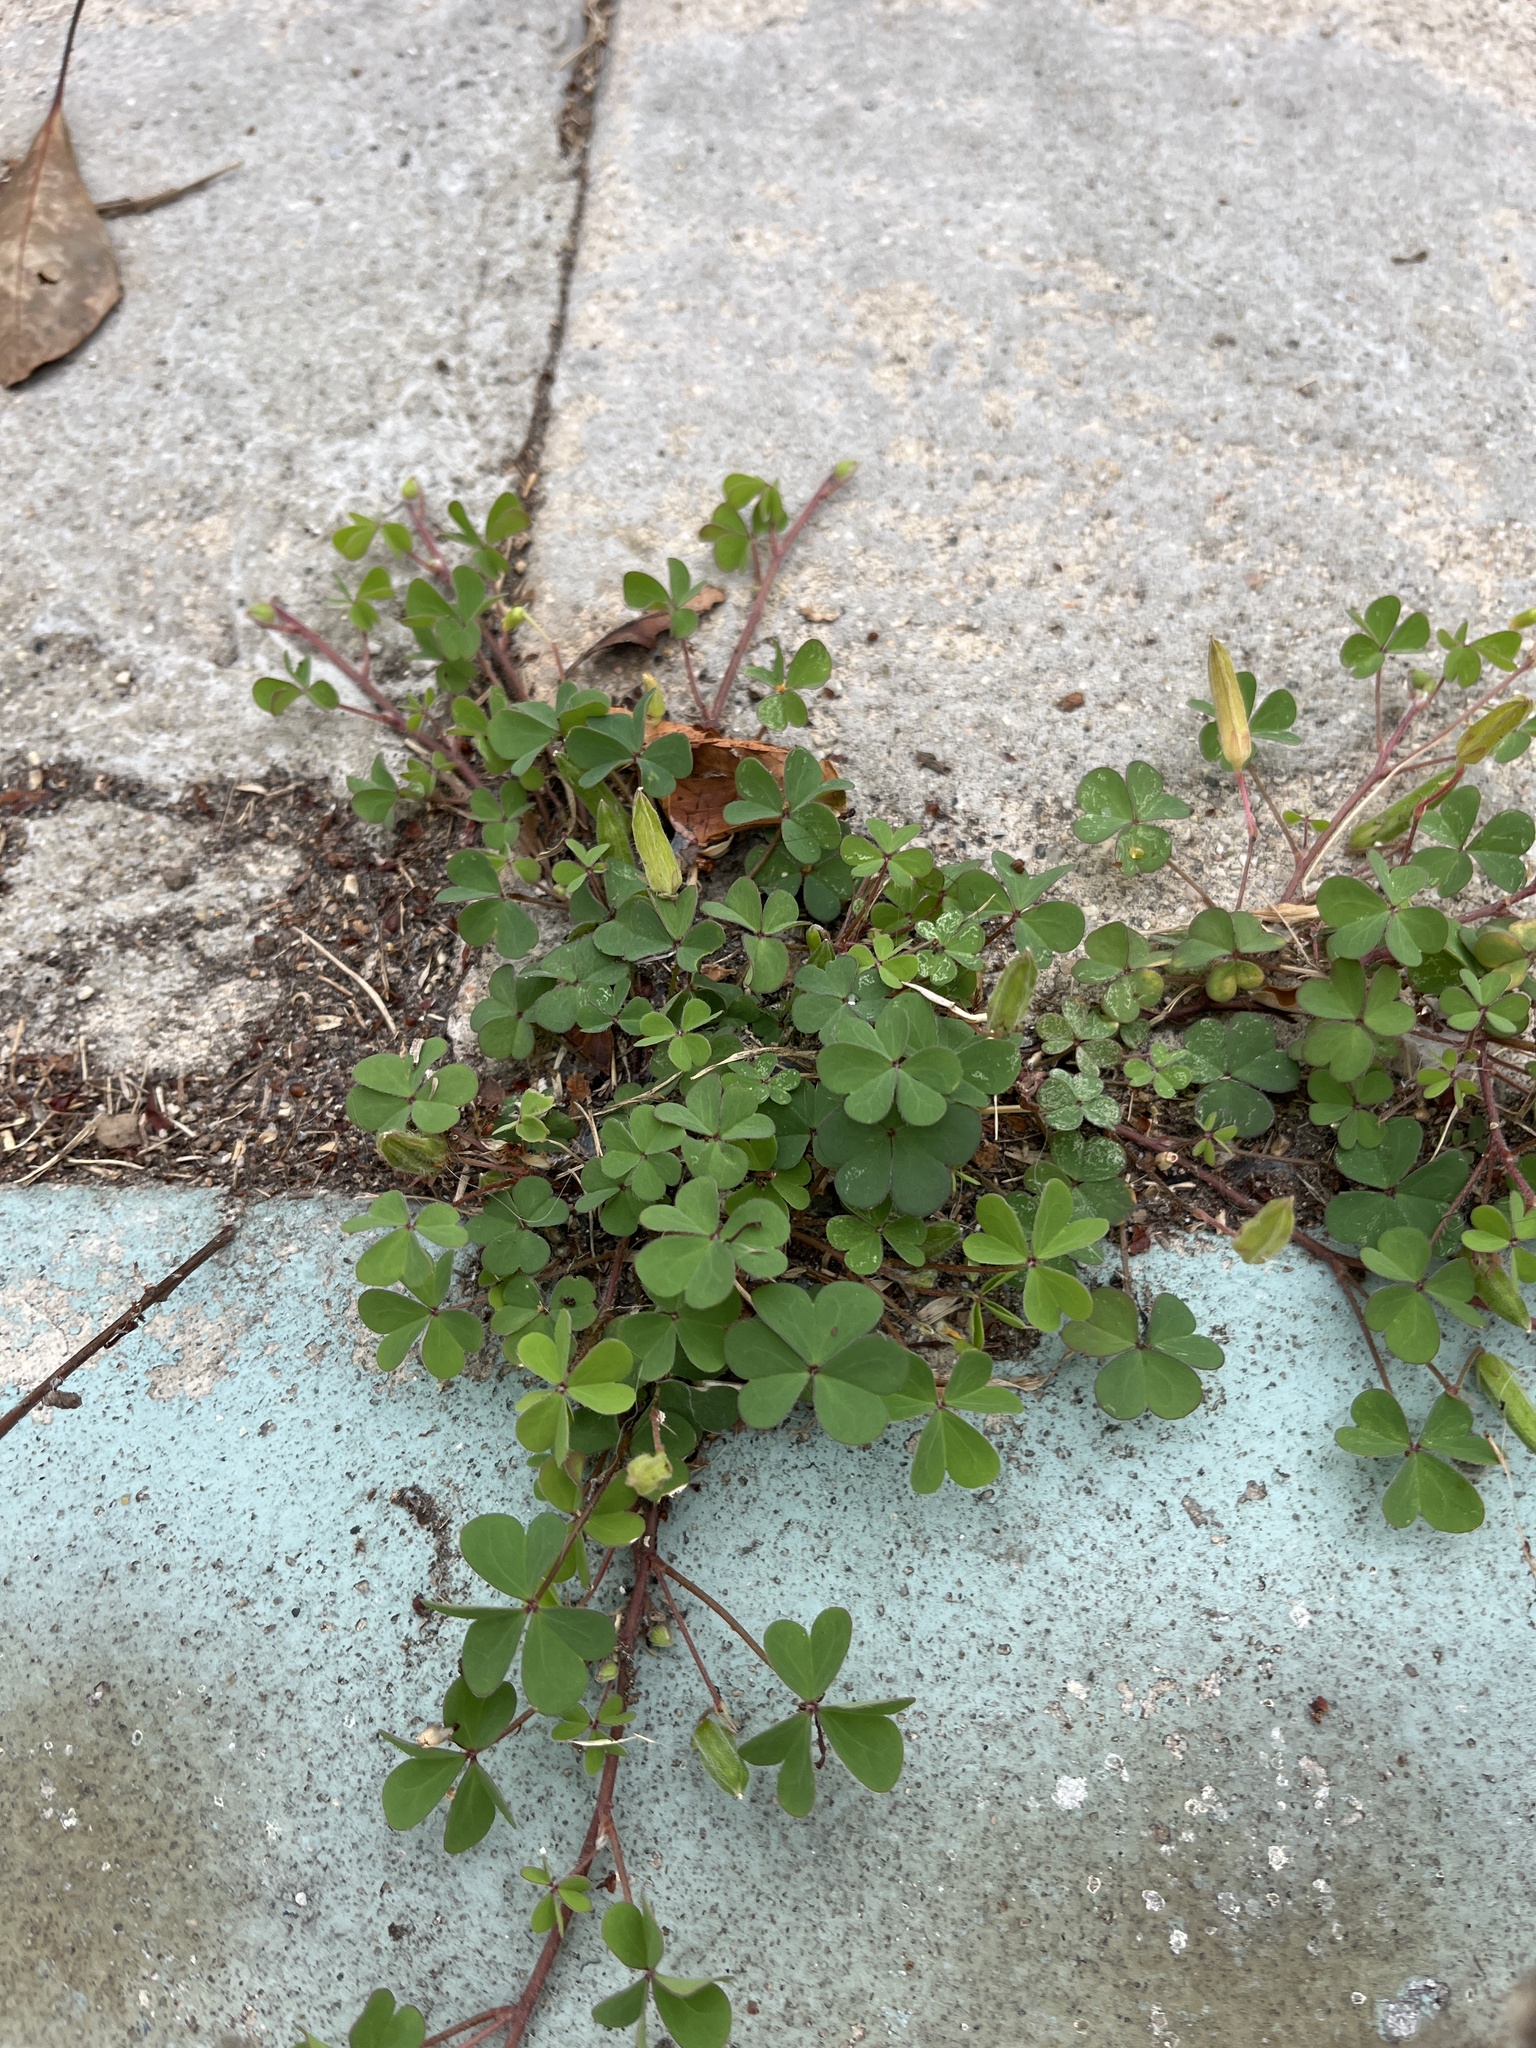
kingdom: Plantae
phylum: Tracheophyta
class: Magnoliopsida
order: Oxalidales
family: Oxalidaceae
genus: Oxalis
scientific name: Oxalis
